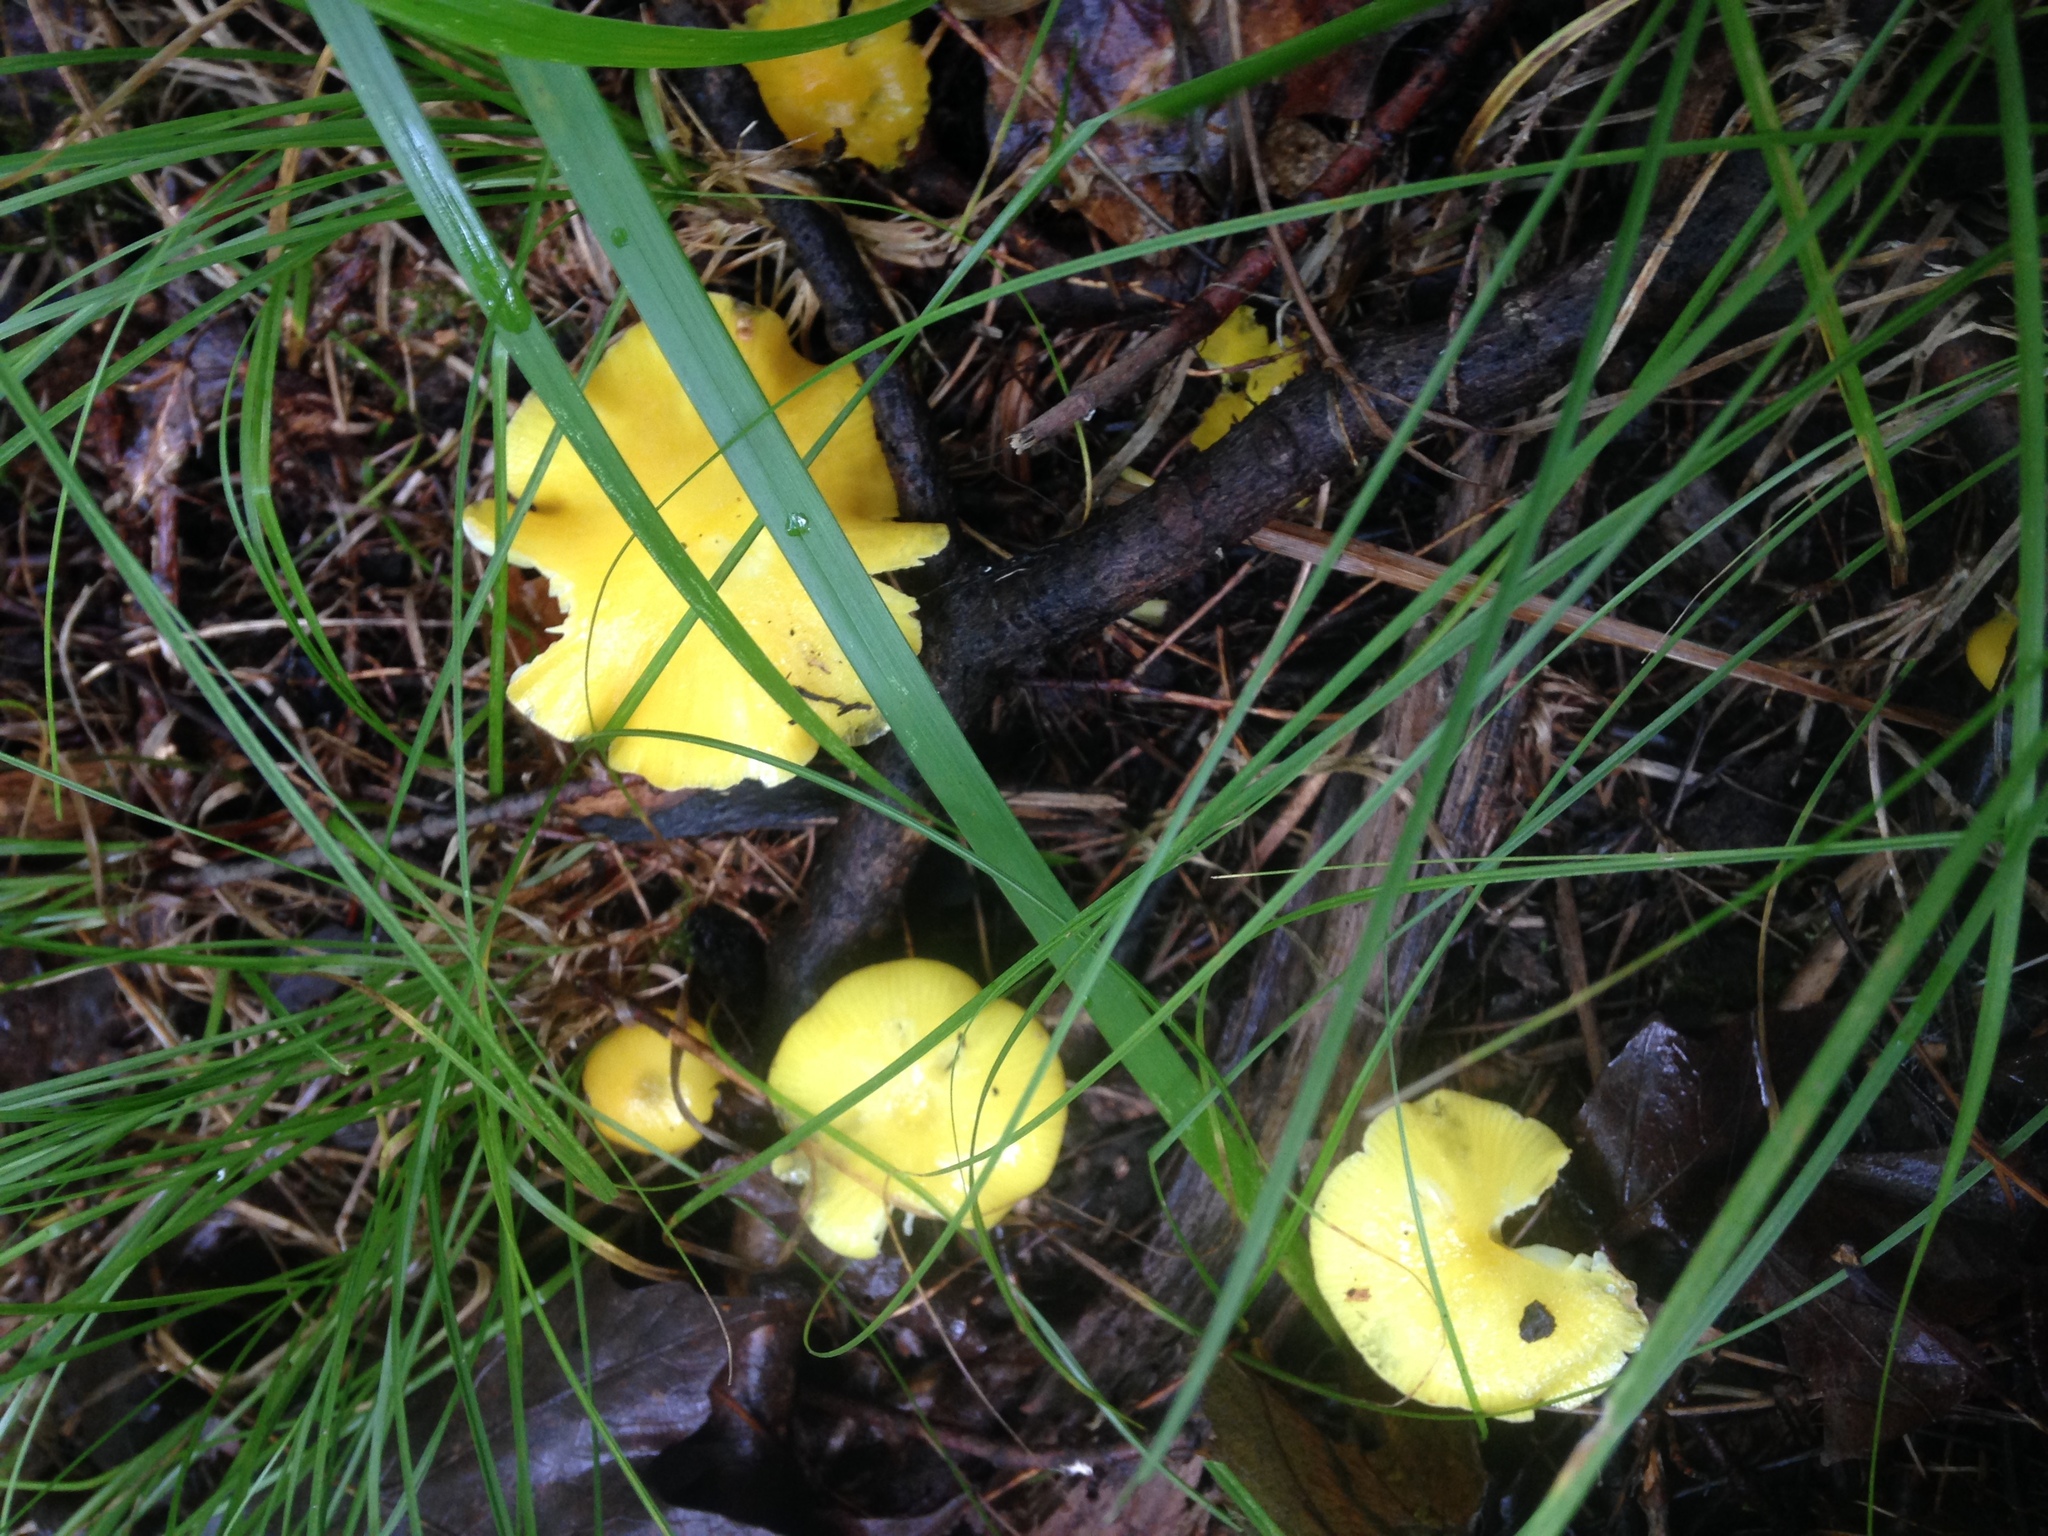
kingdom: Fungi
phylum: Basidiomycota
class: Agaricomycetes
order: Agaricales
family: Hygrophoraceae
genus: Hygrocybe
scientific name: Hygrocybe flavescens
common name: Golden waxy cap
